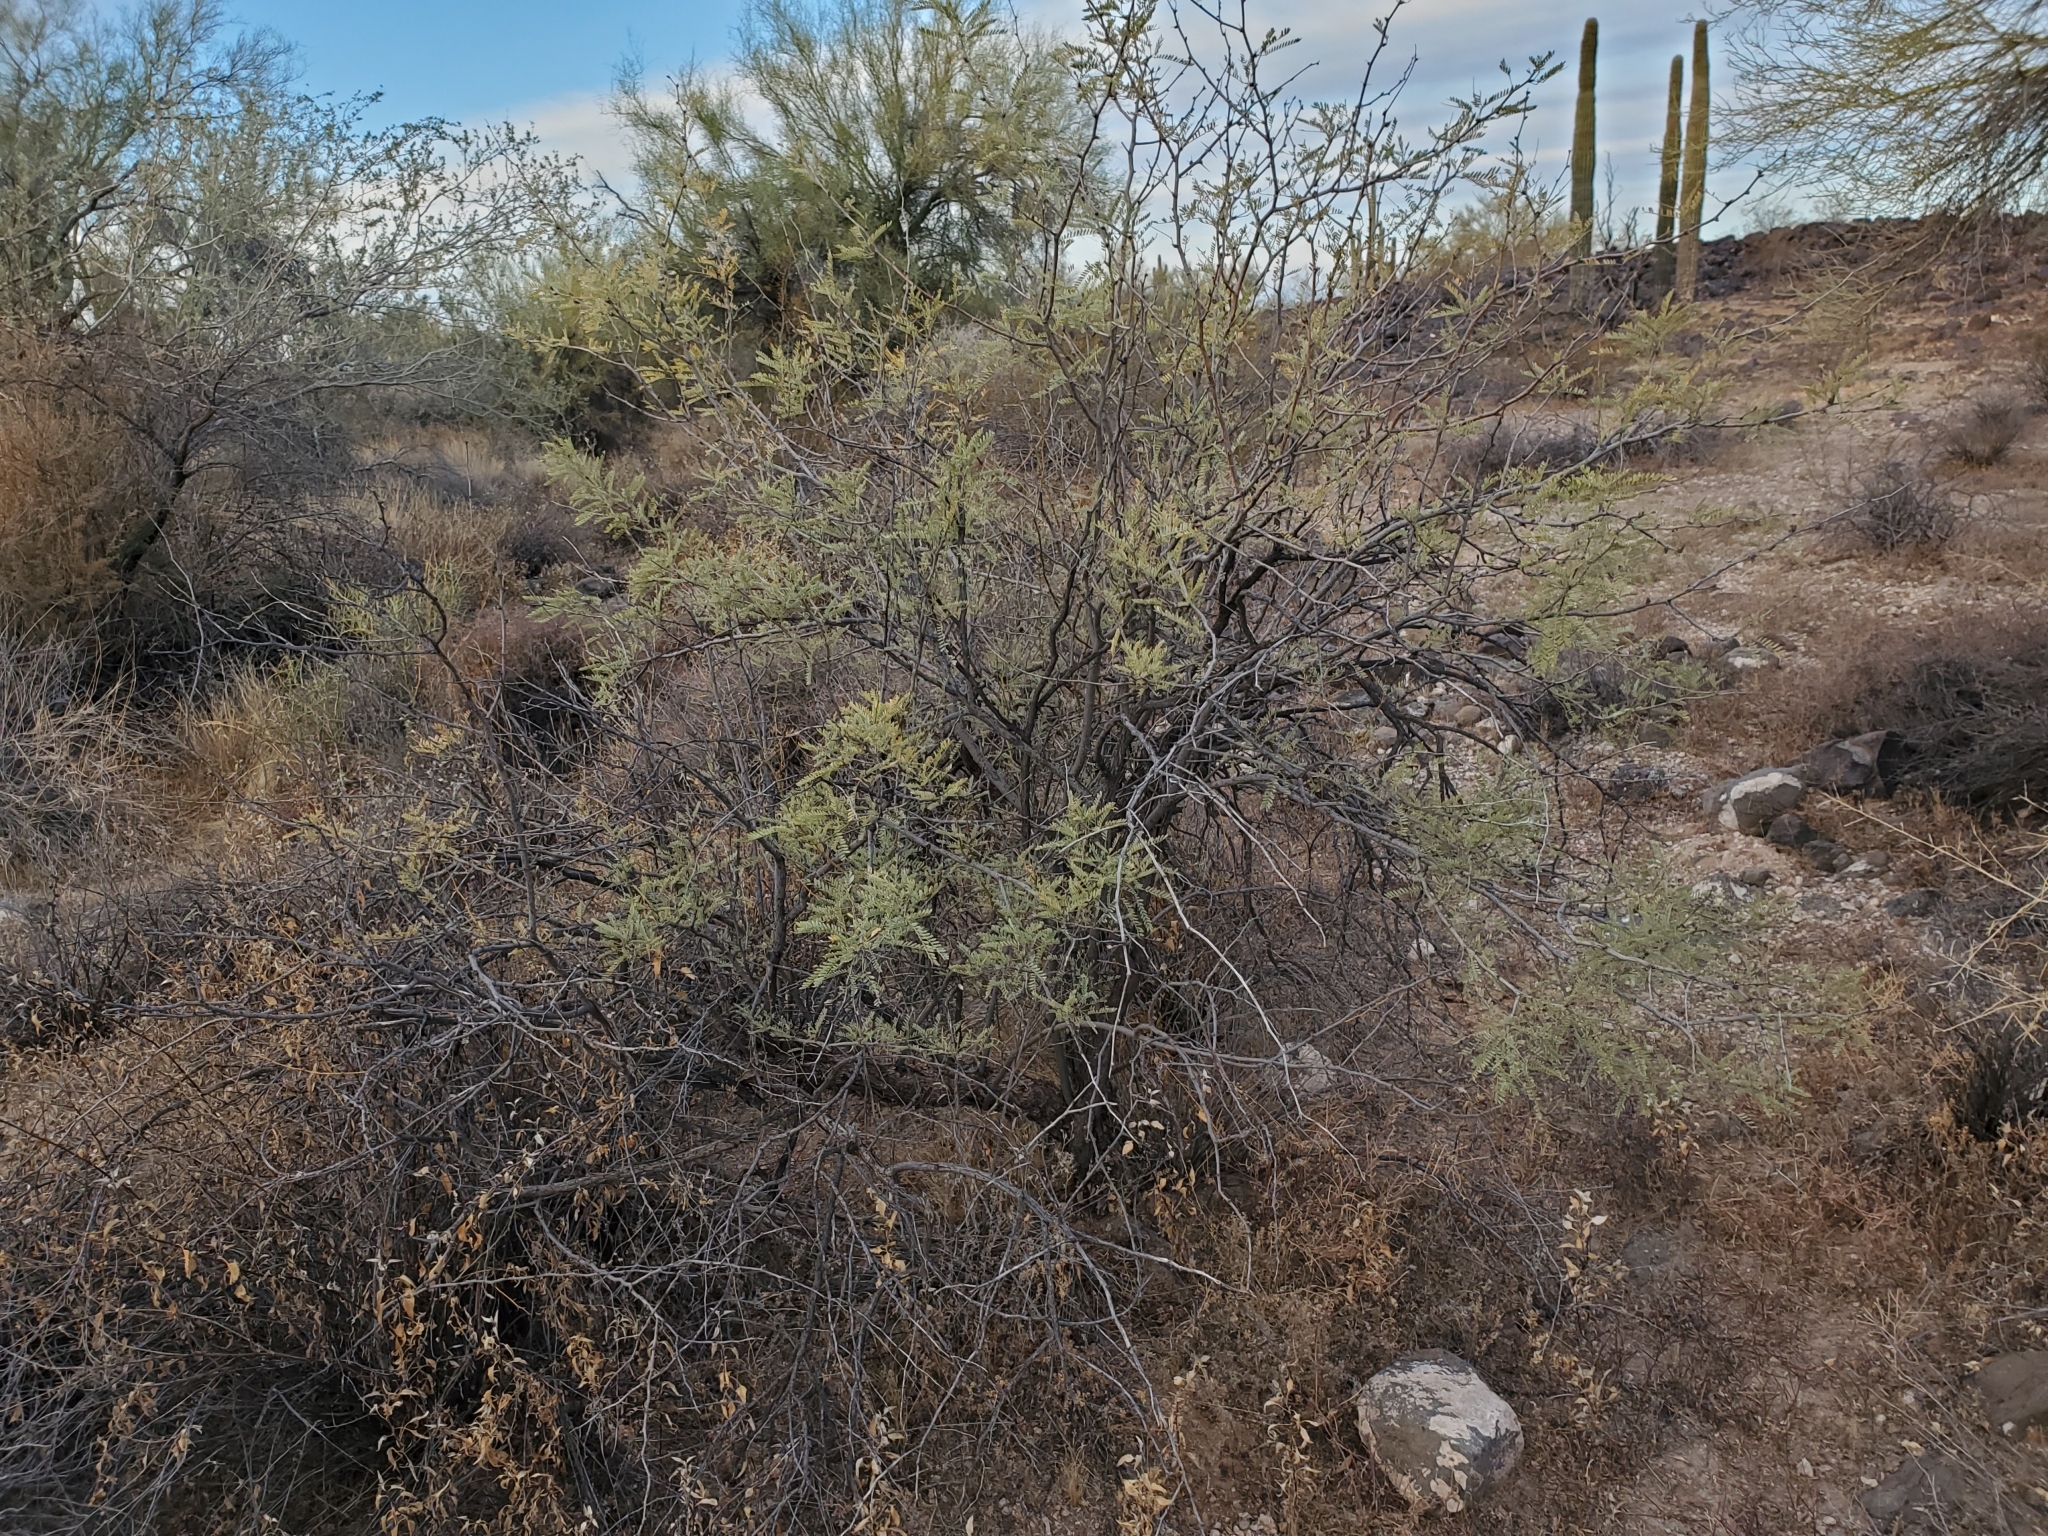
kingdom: Plantae
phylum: Tracheophyta
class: Magnoliopsida
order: Fabales
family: Fabaceae
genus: Prosopis
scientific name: Prosopis velutina
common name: Velvet mesquite
